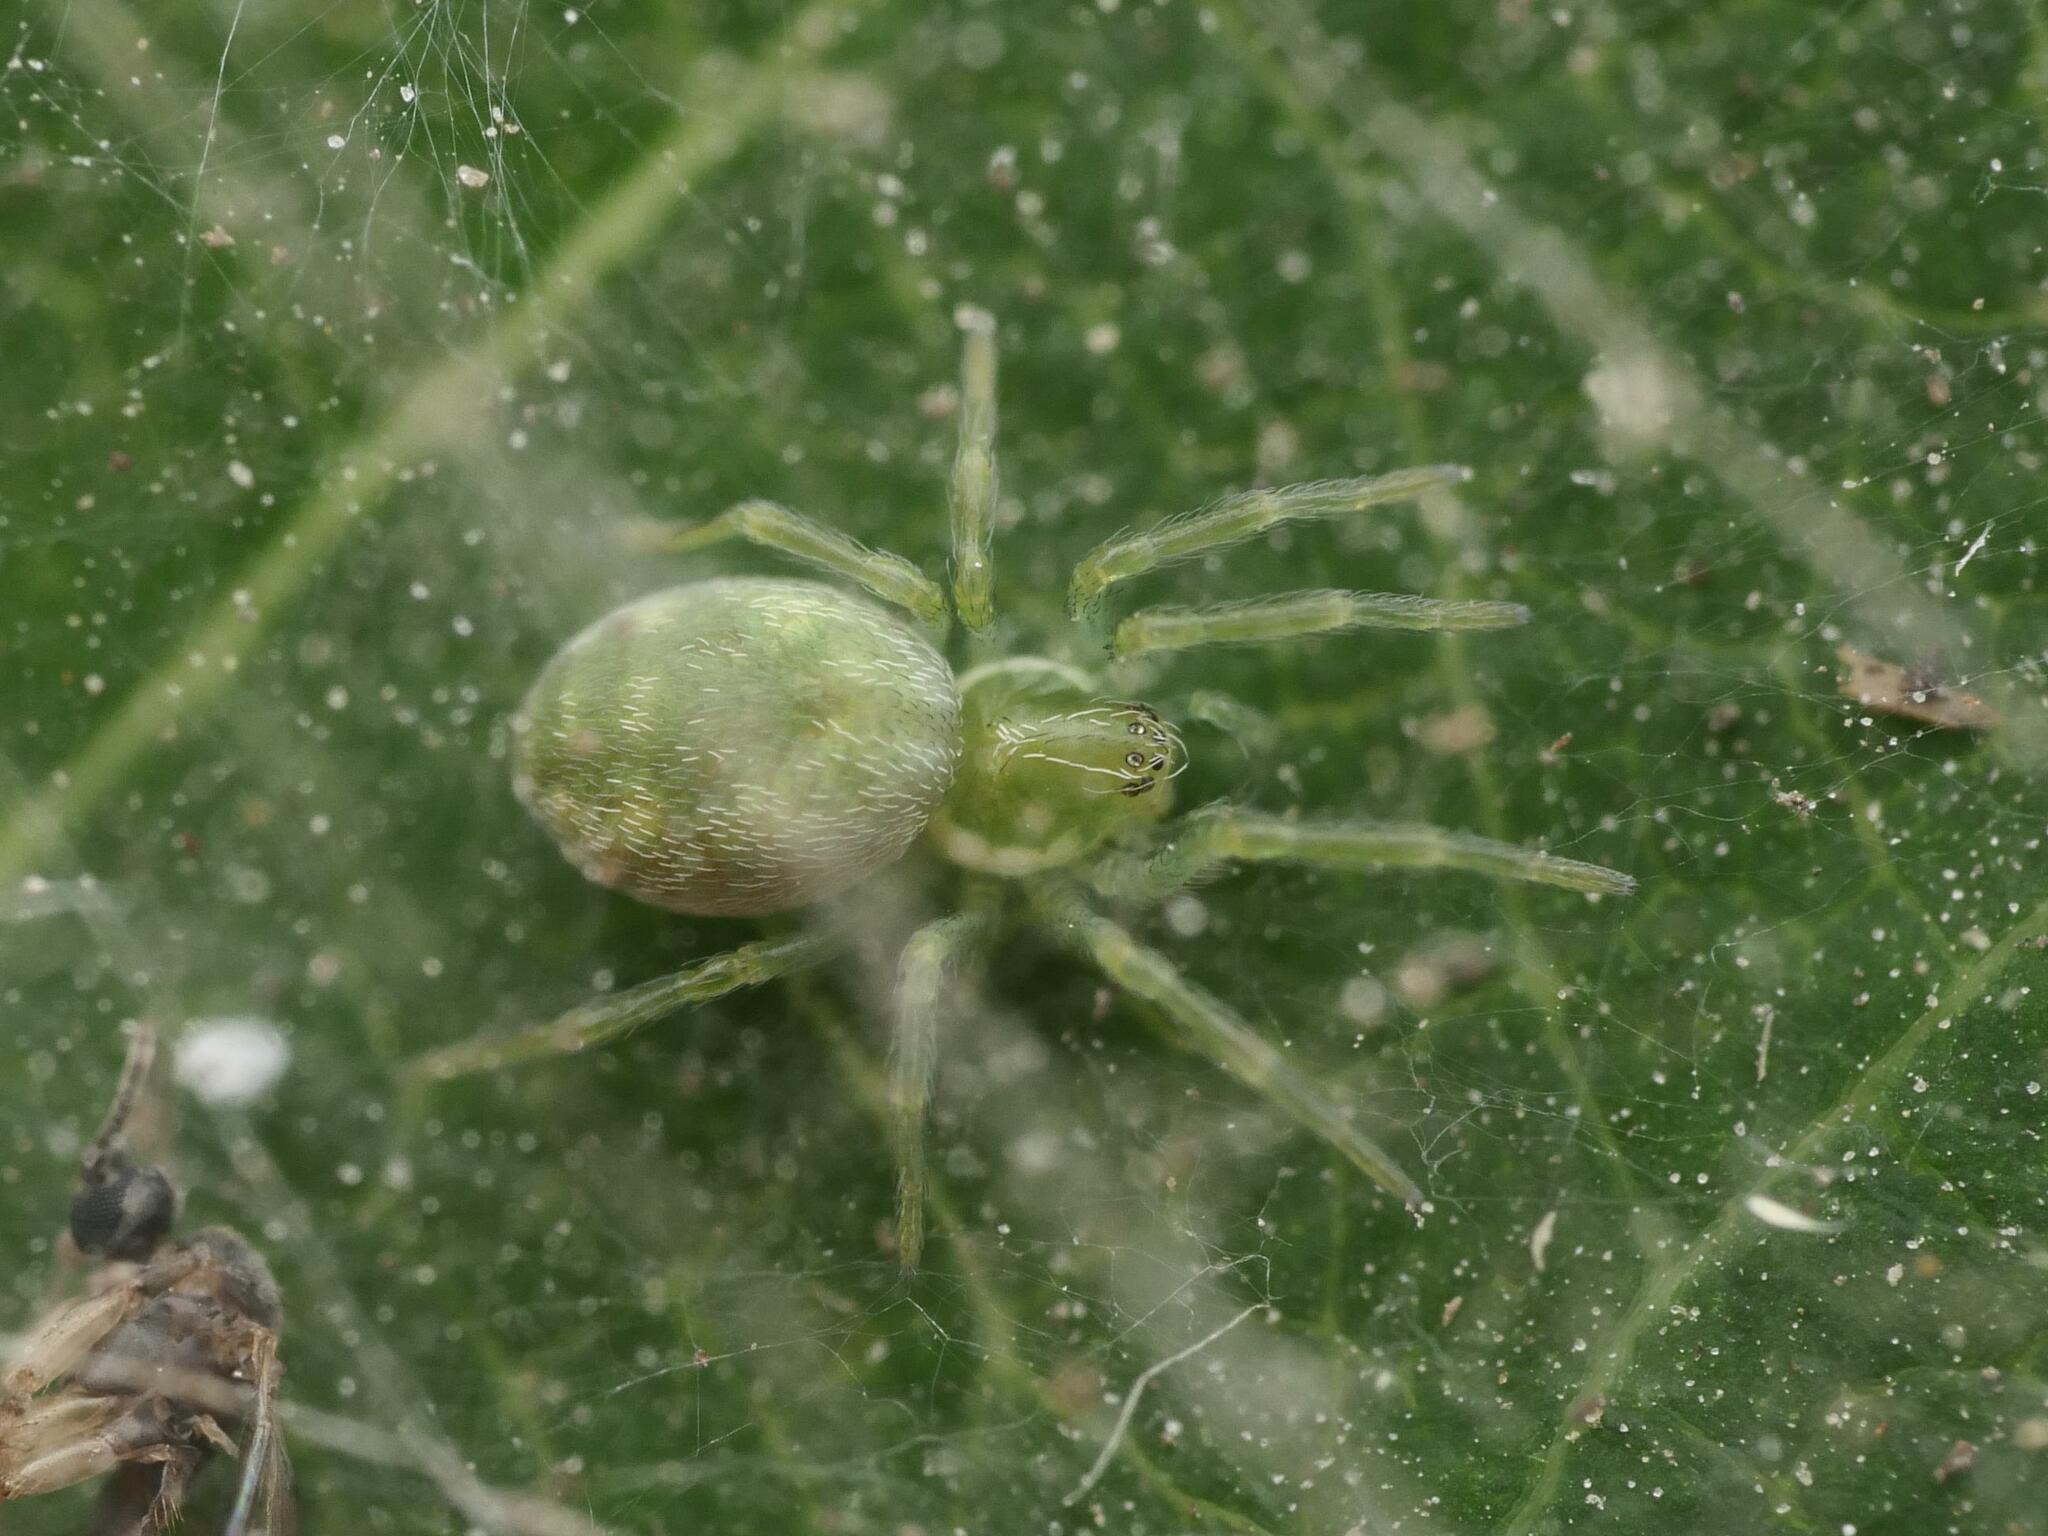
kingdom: Animalia
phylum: Arthropoda
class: Arachnida
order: Araneae
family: Dictynidae
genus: Nigma
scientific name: Nigma walckenaeri
